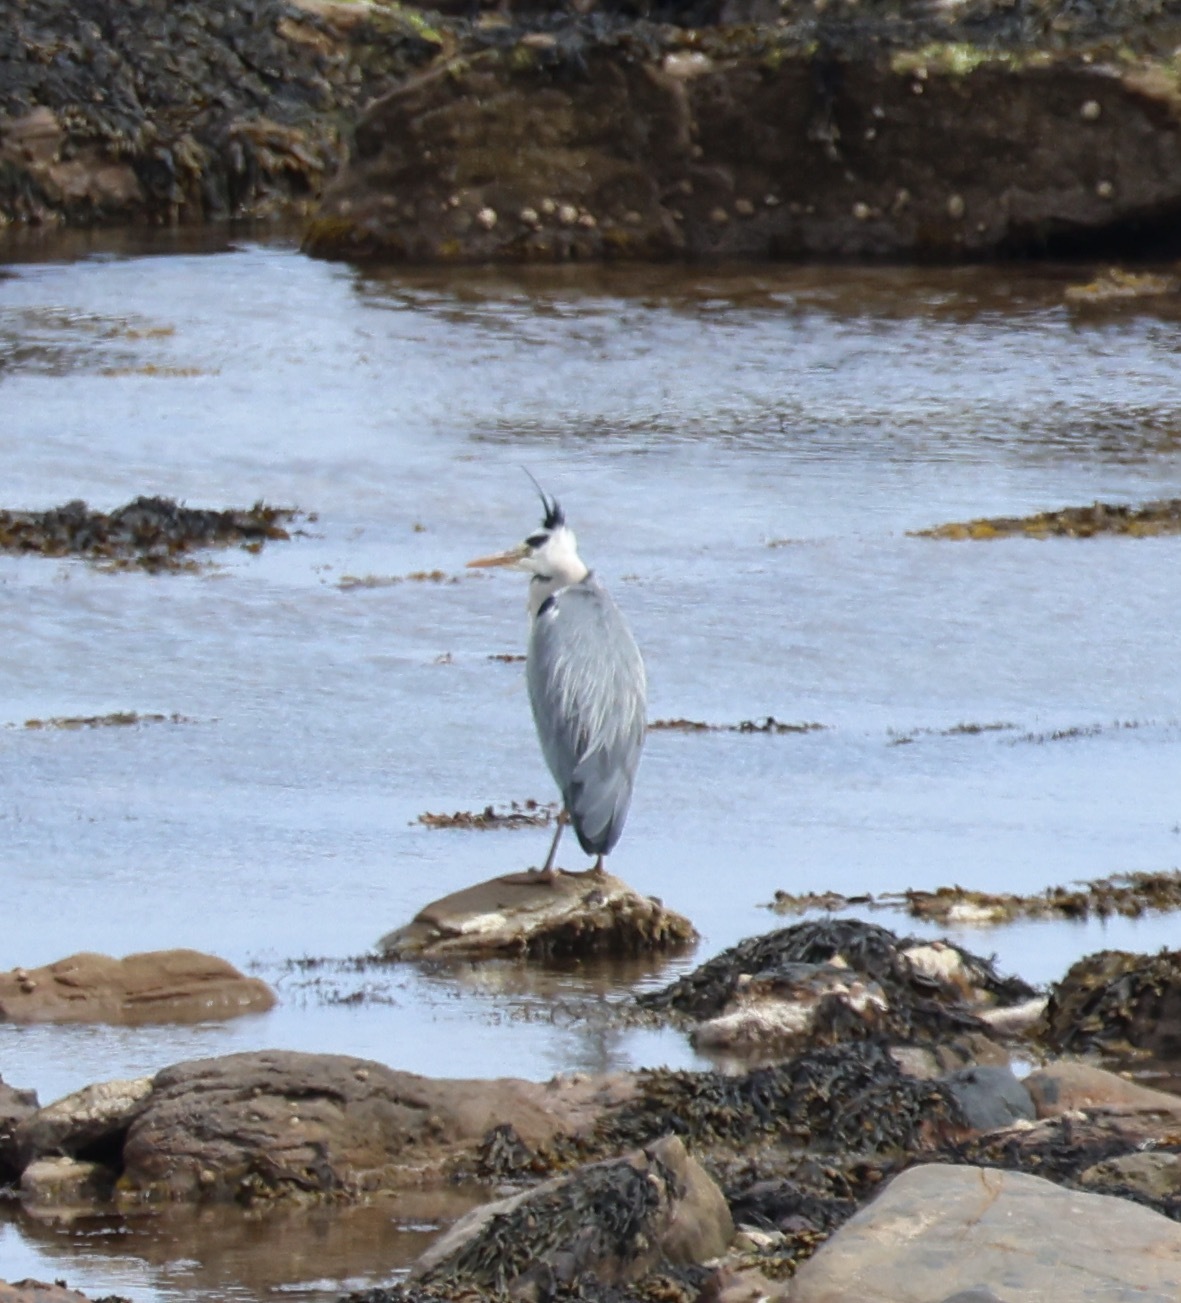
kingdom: Animalia
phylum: Chordata
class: Aves
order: Pelecaniformes
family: Ardeidae
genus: Ardea
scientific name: Ardea cinerea
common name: Grey heron
